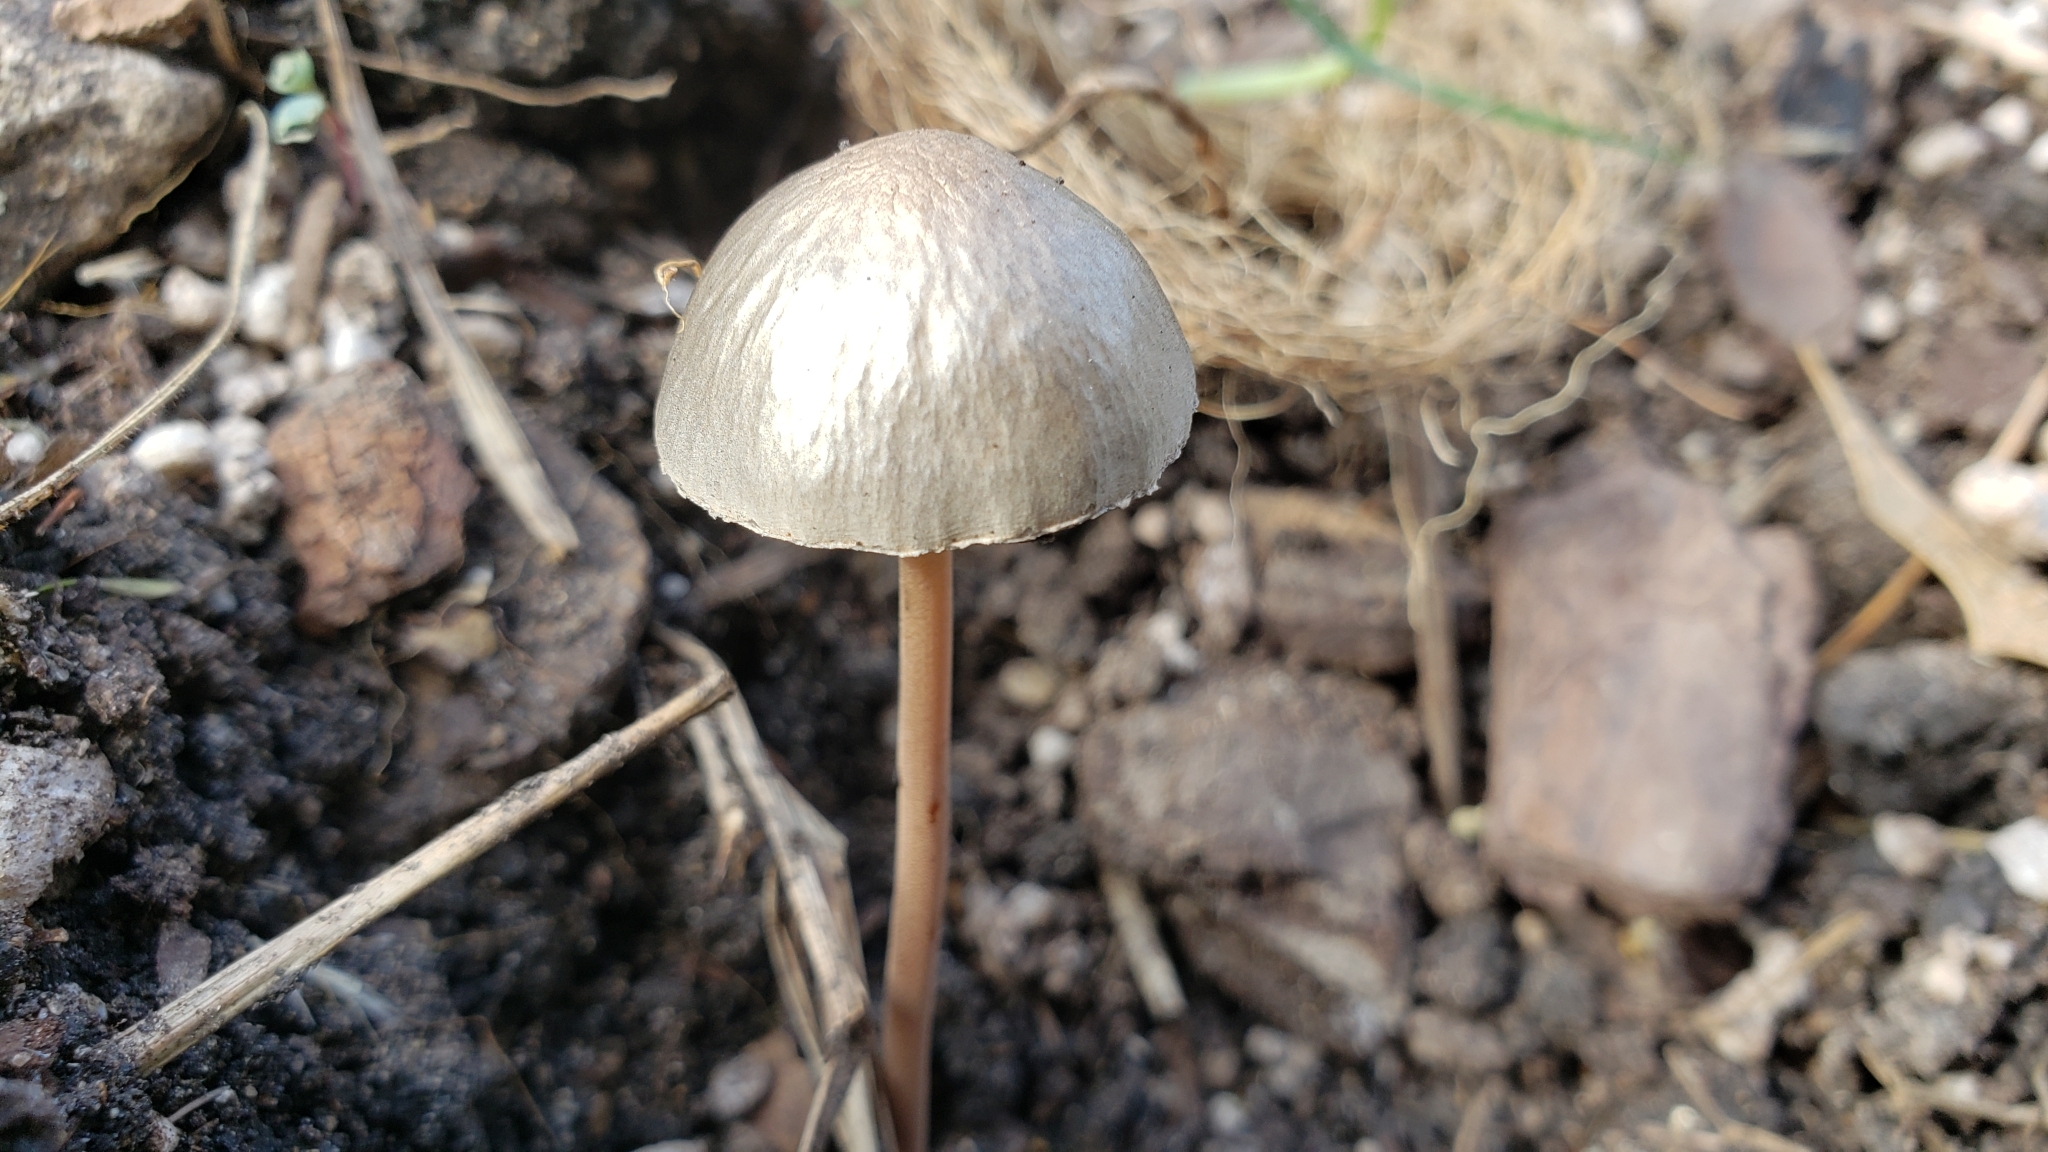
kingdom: Fungi
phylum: Basidiomycota
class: Agaricomycetes
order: Agaricales
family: Bolbitiaceae
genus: Panaeolus
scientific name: Panaeolus papilionaceus
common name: Petticoat mottlegill
